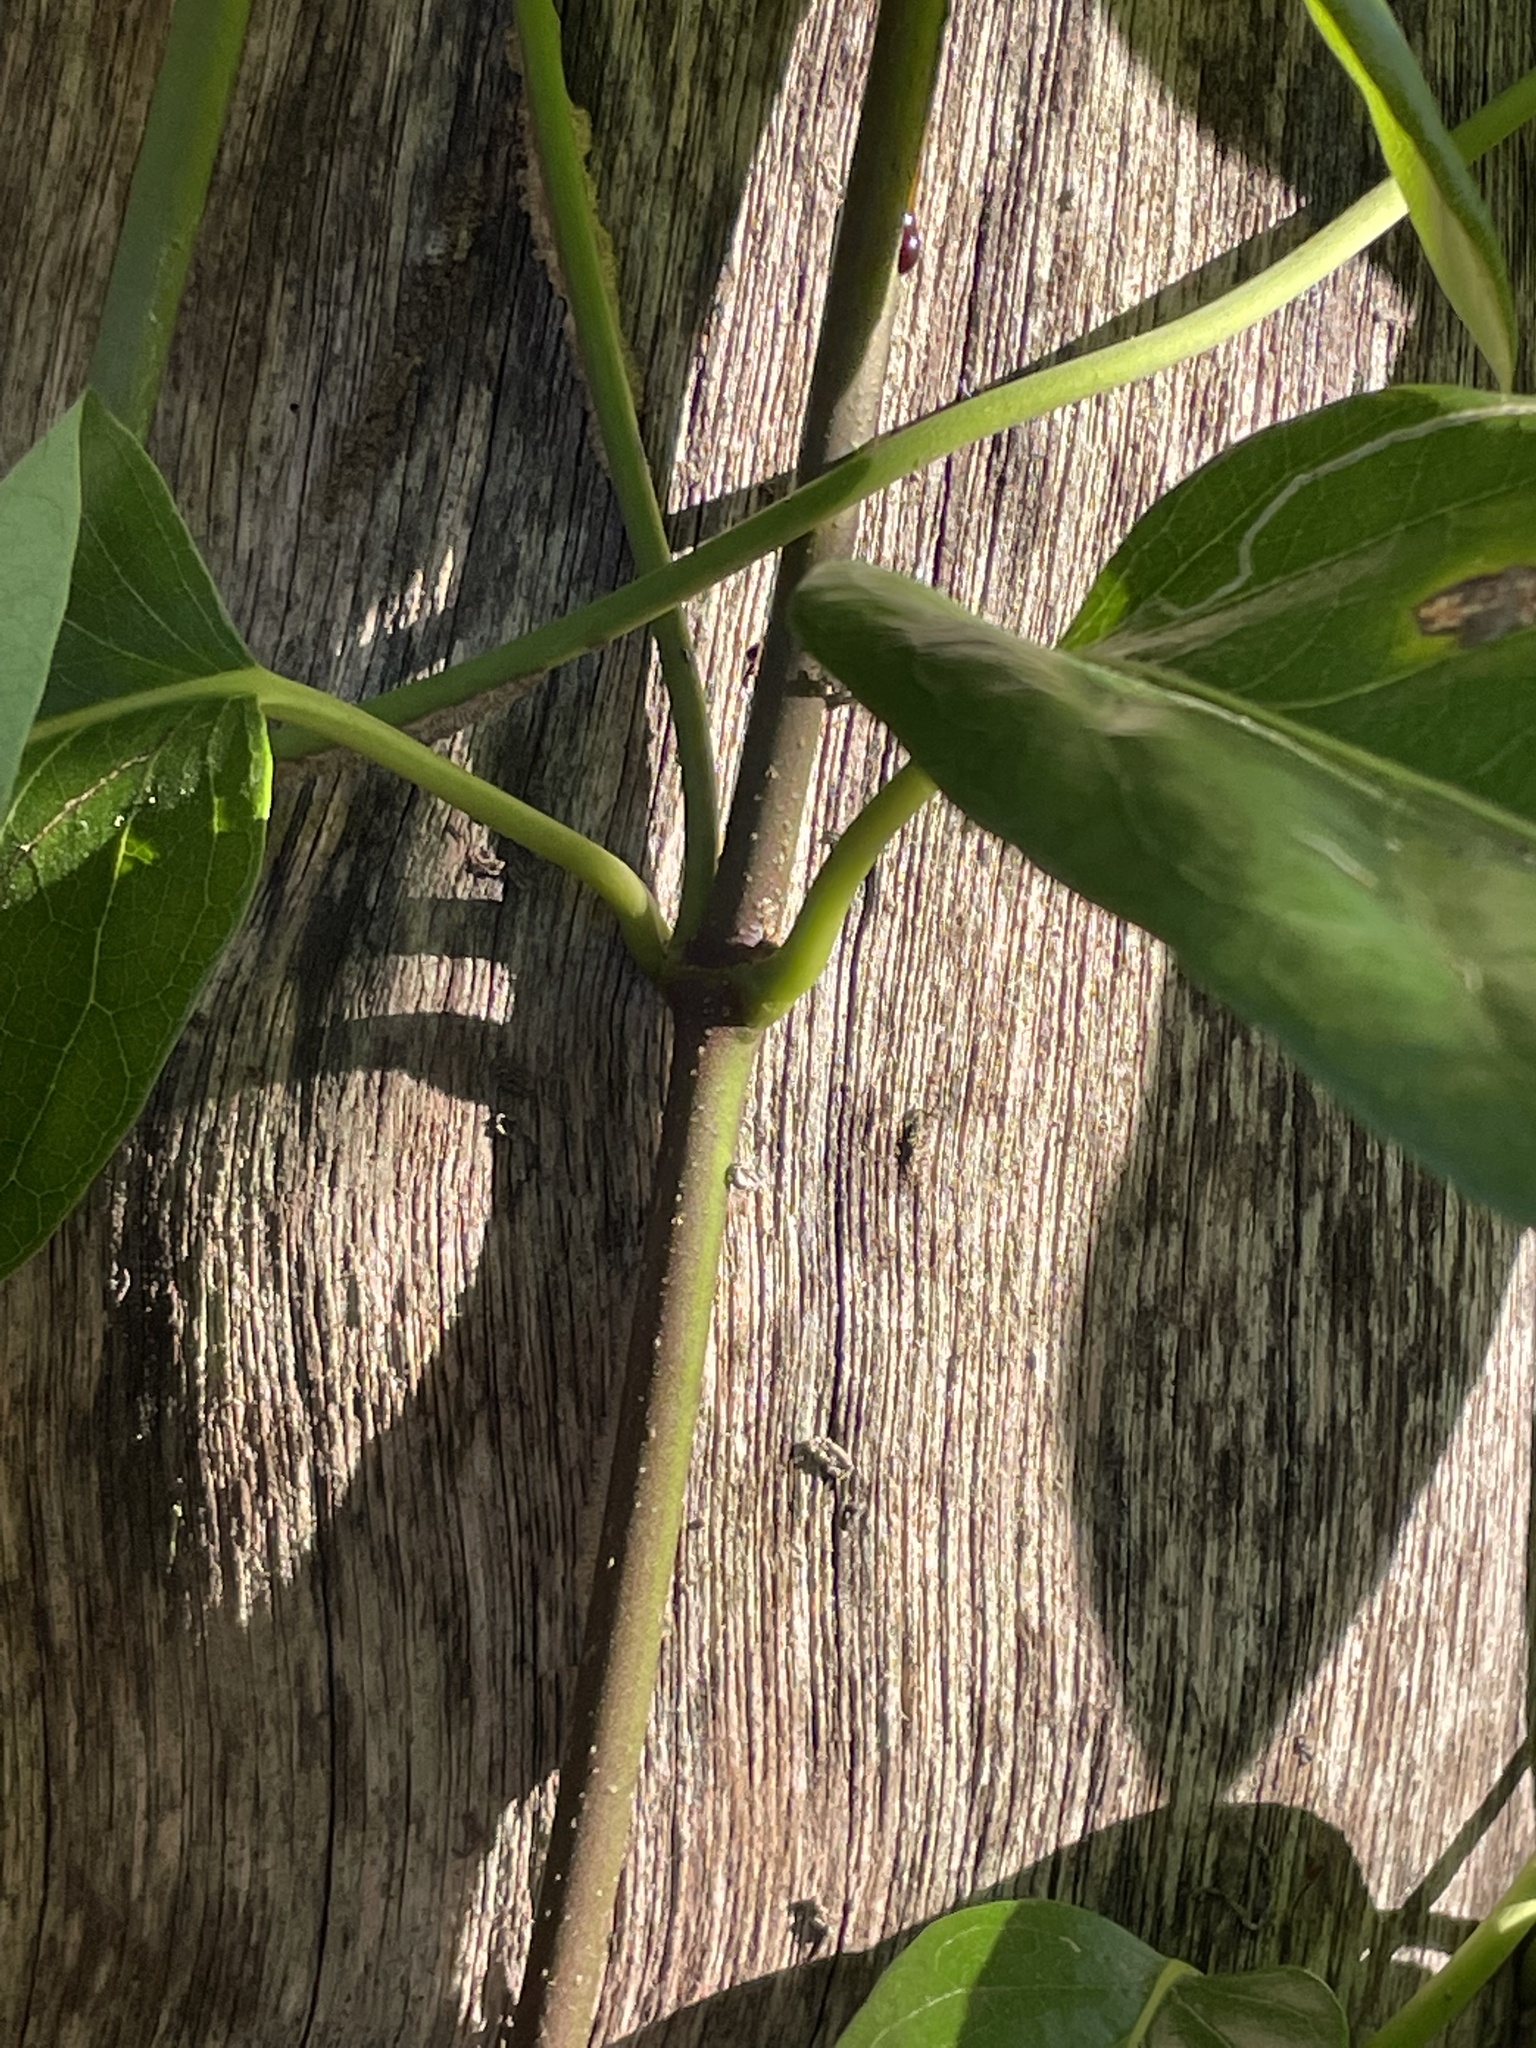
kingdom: Plantae
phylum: Tracheophyta
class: Magnoliopsida
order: Gentianales
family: Apocynaceae
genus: Parsonsia
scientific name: Parsonsia straminea
